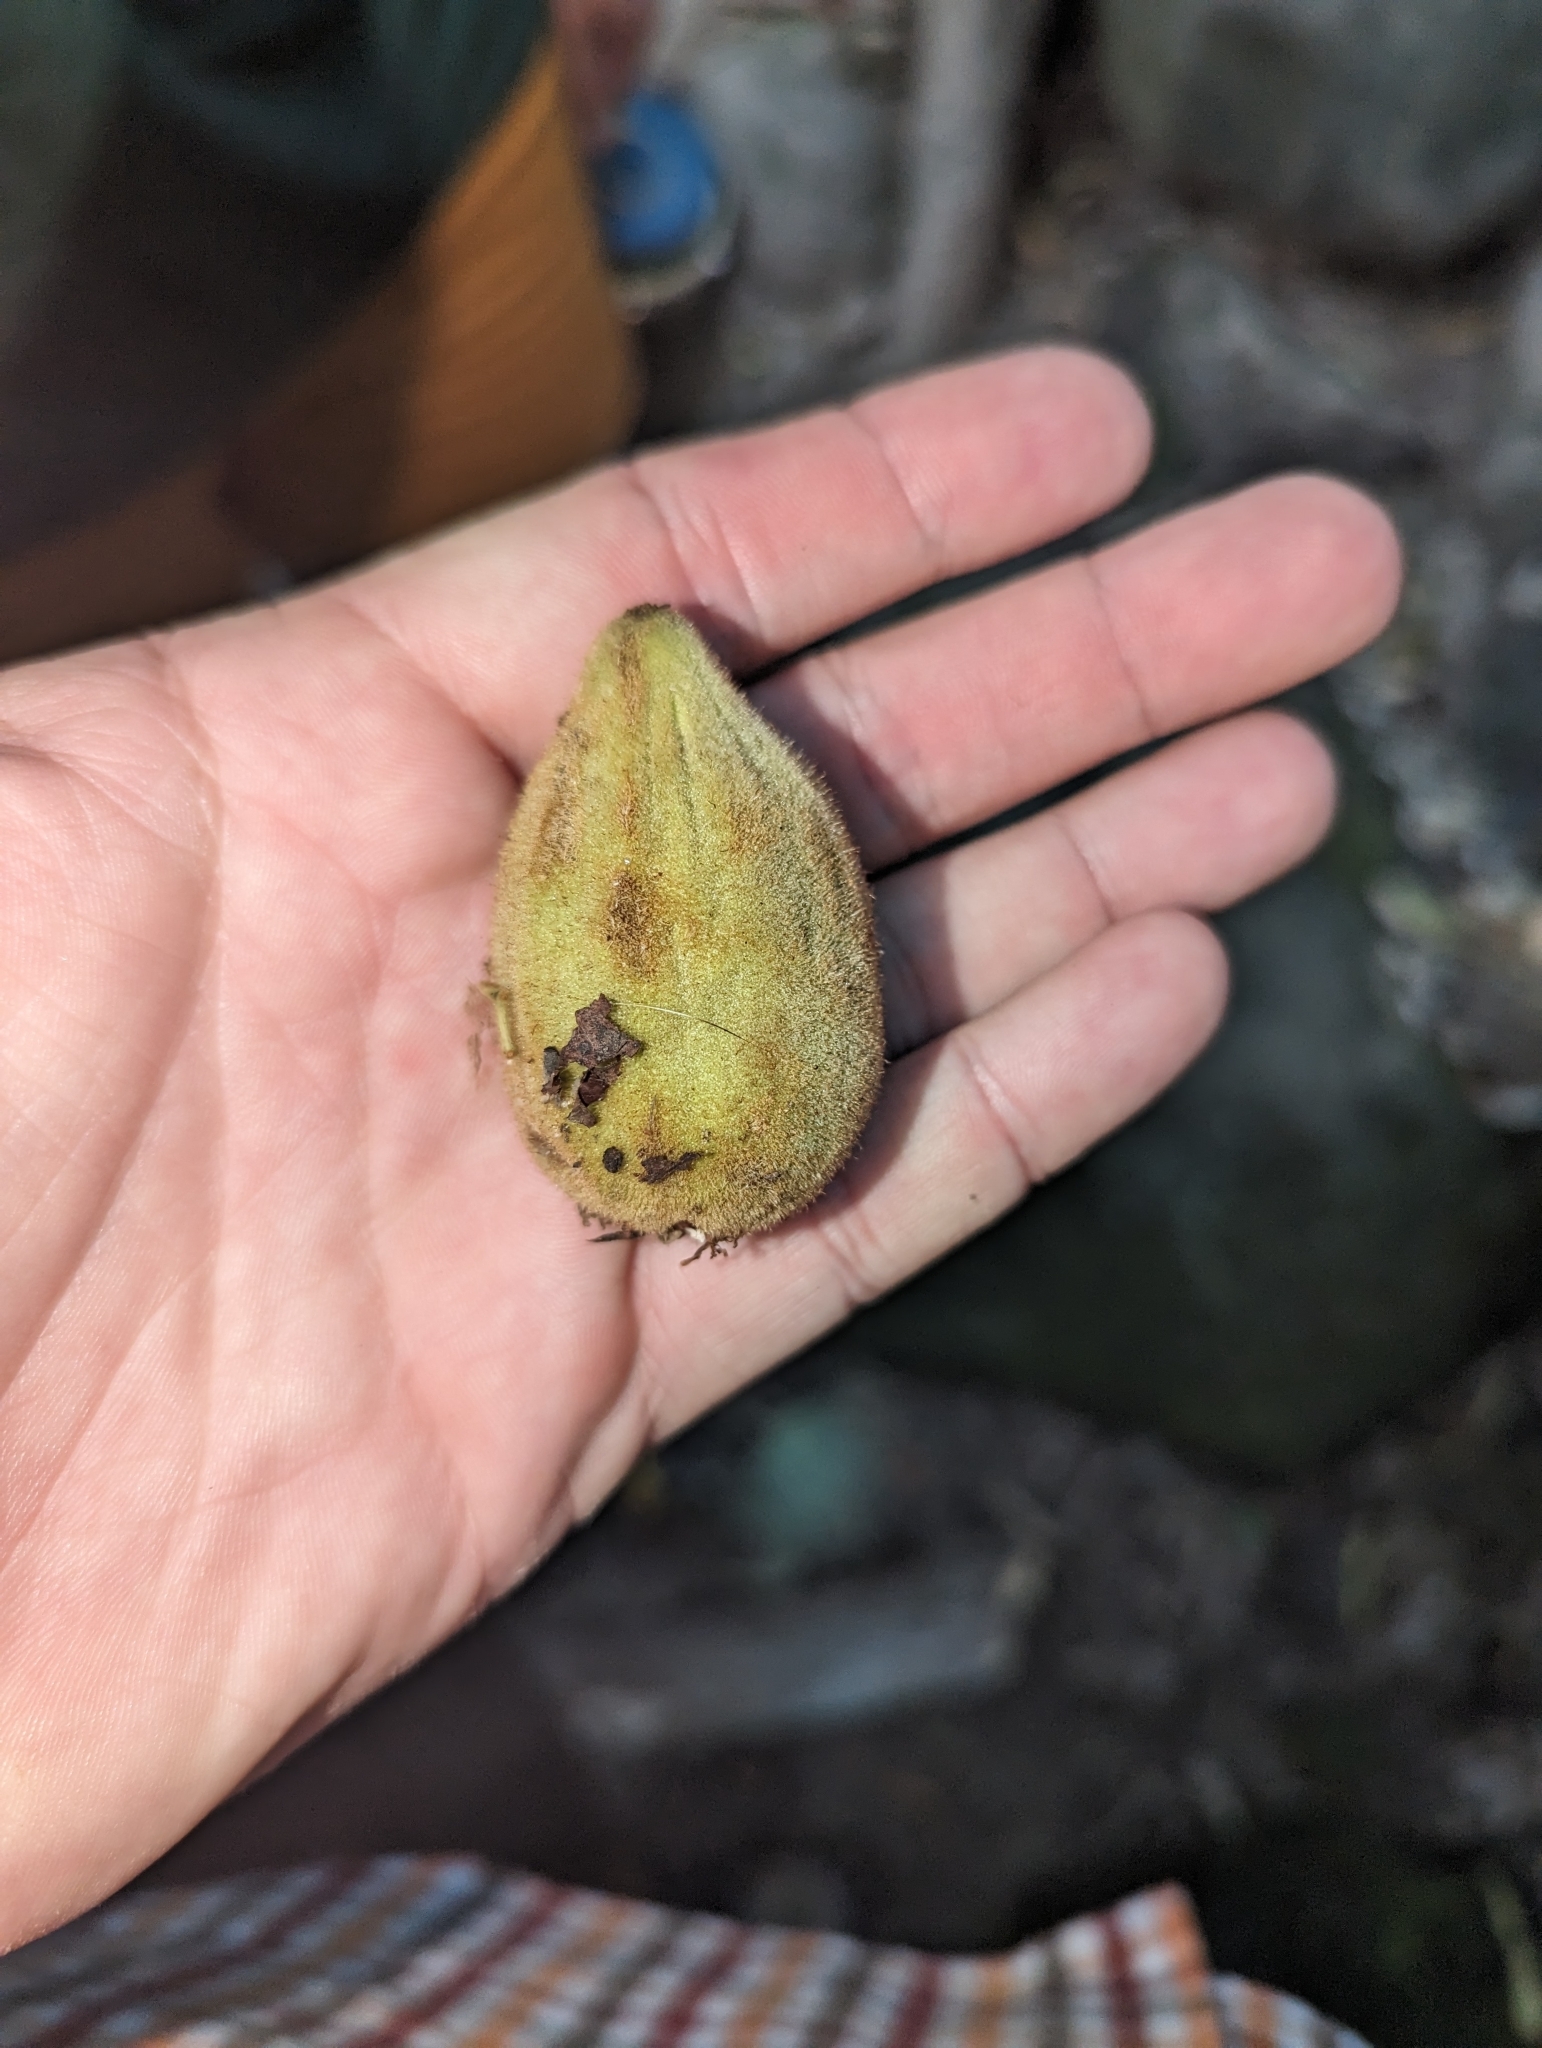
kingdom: Plantae
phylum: Tracheophyta
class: Magnoliopsida
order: Fagales
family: Juglandaceae
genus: Juglans
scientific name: Juglans cinerea
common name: Butternut
